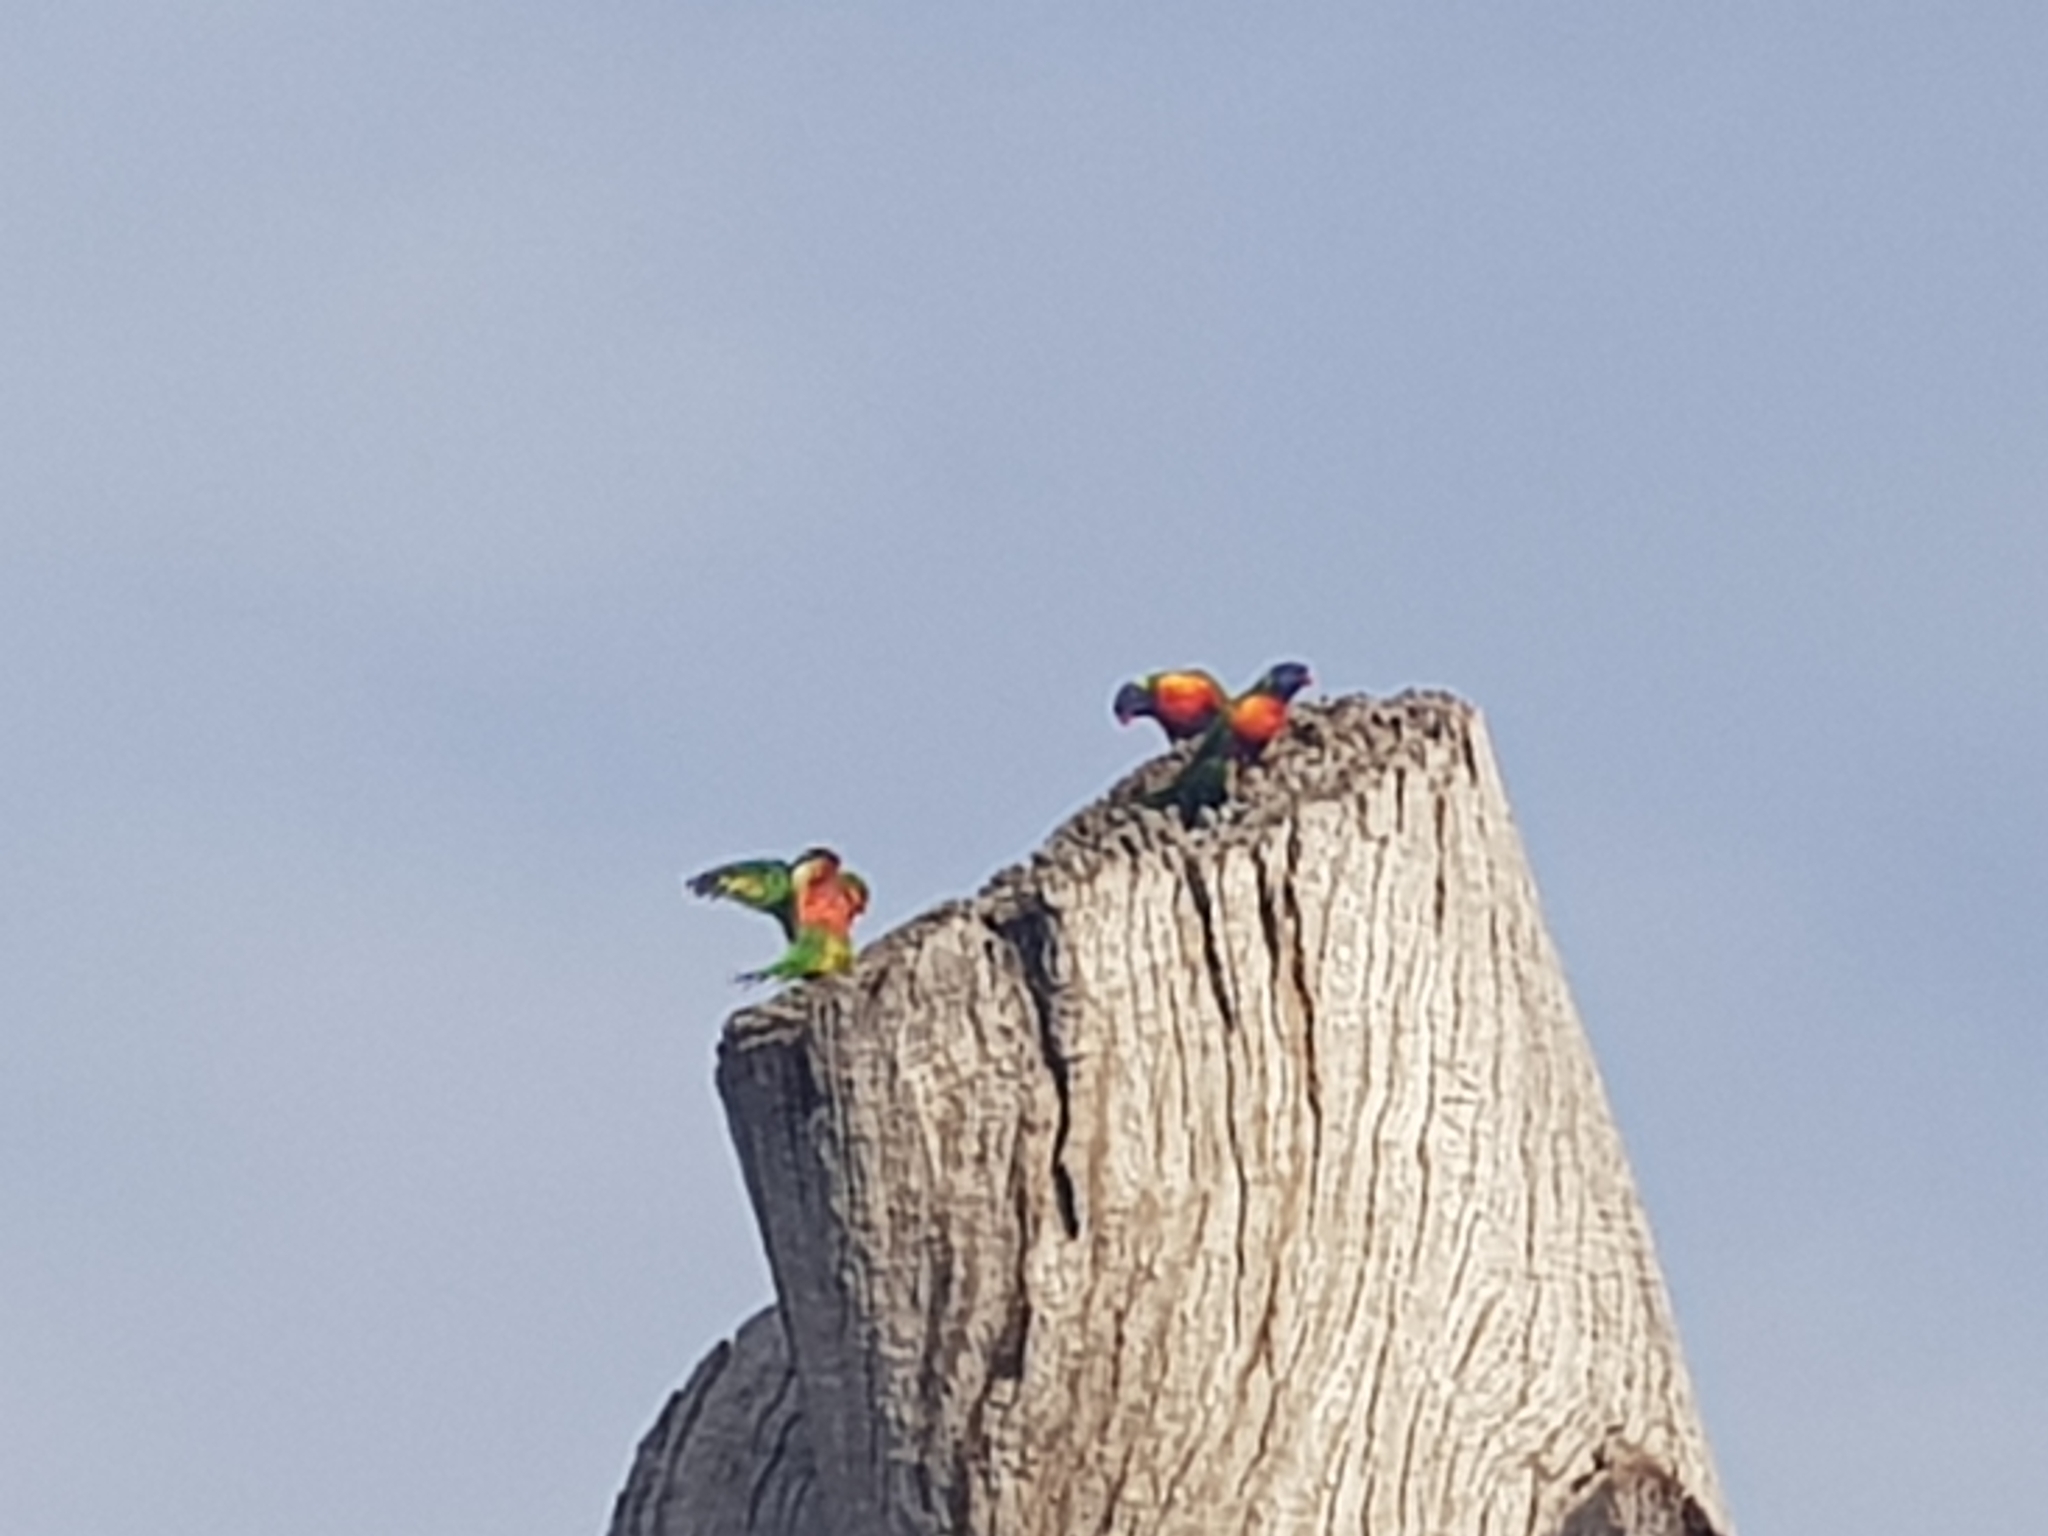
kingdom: Animalia
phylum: Chordata
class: Aves
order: Psittaciformes
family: Psittacidae
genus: Trichoglossus
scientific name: Trichoglossus haematodus
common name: Coconut lorikeet
